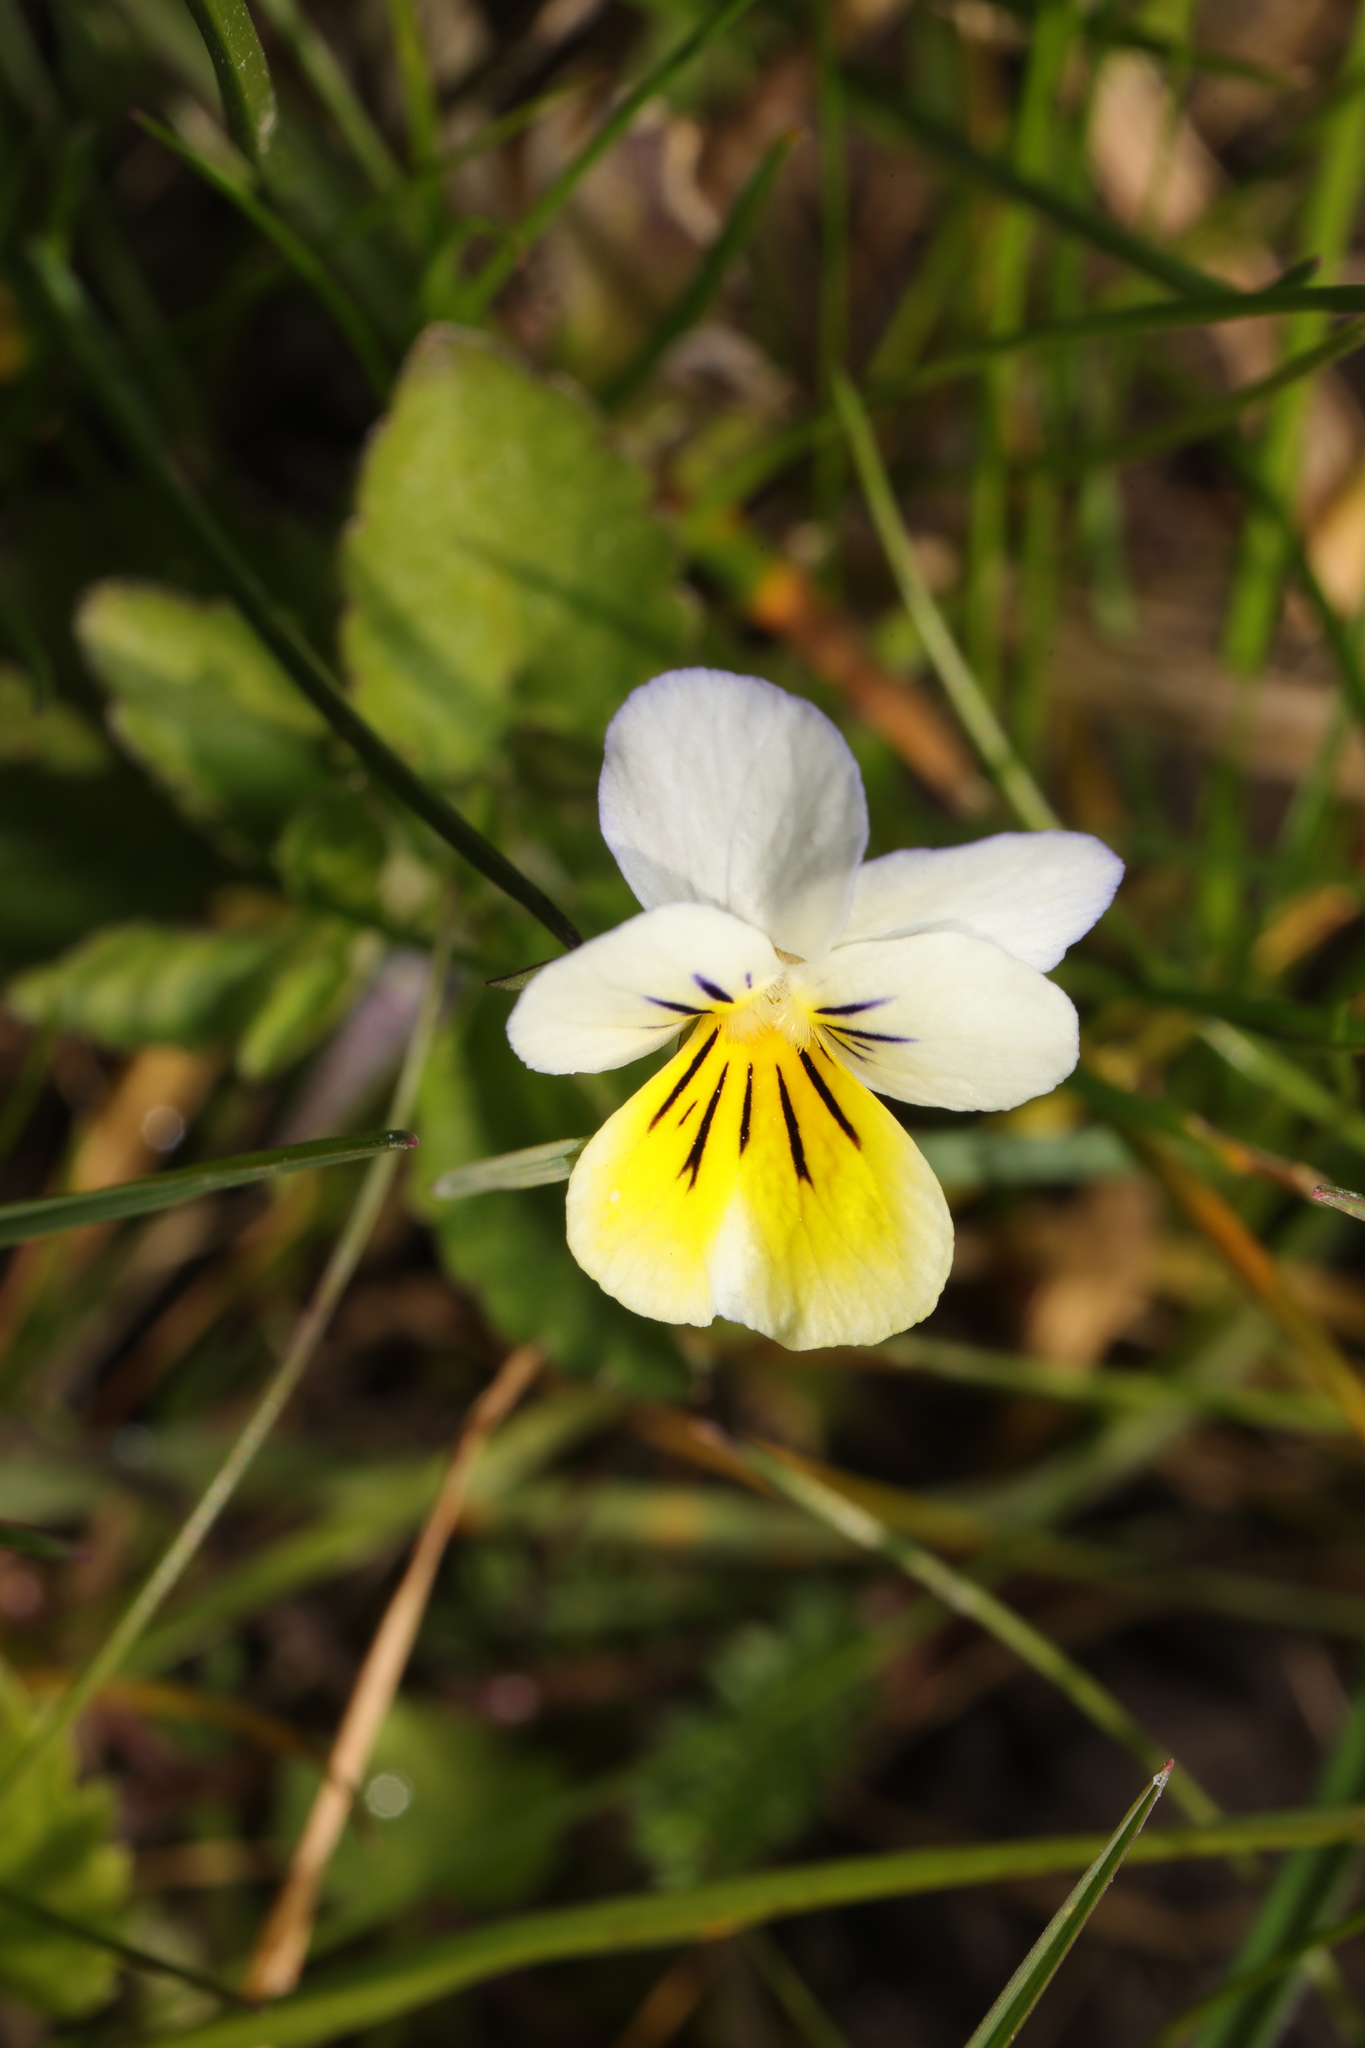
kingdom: Plantae
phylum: Tracheophyta
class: Magnoliopsida
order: Malpighiales
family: Violaceae
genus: Viola
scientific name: Viola arvensis
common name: Field pansy
